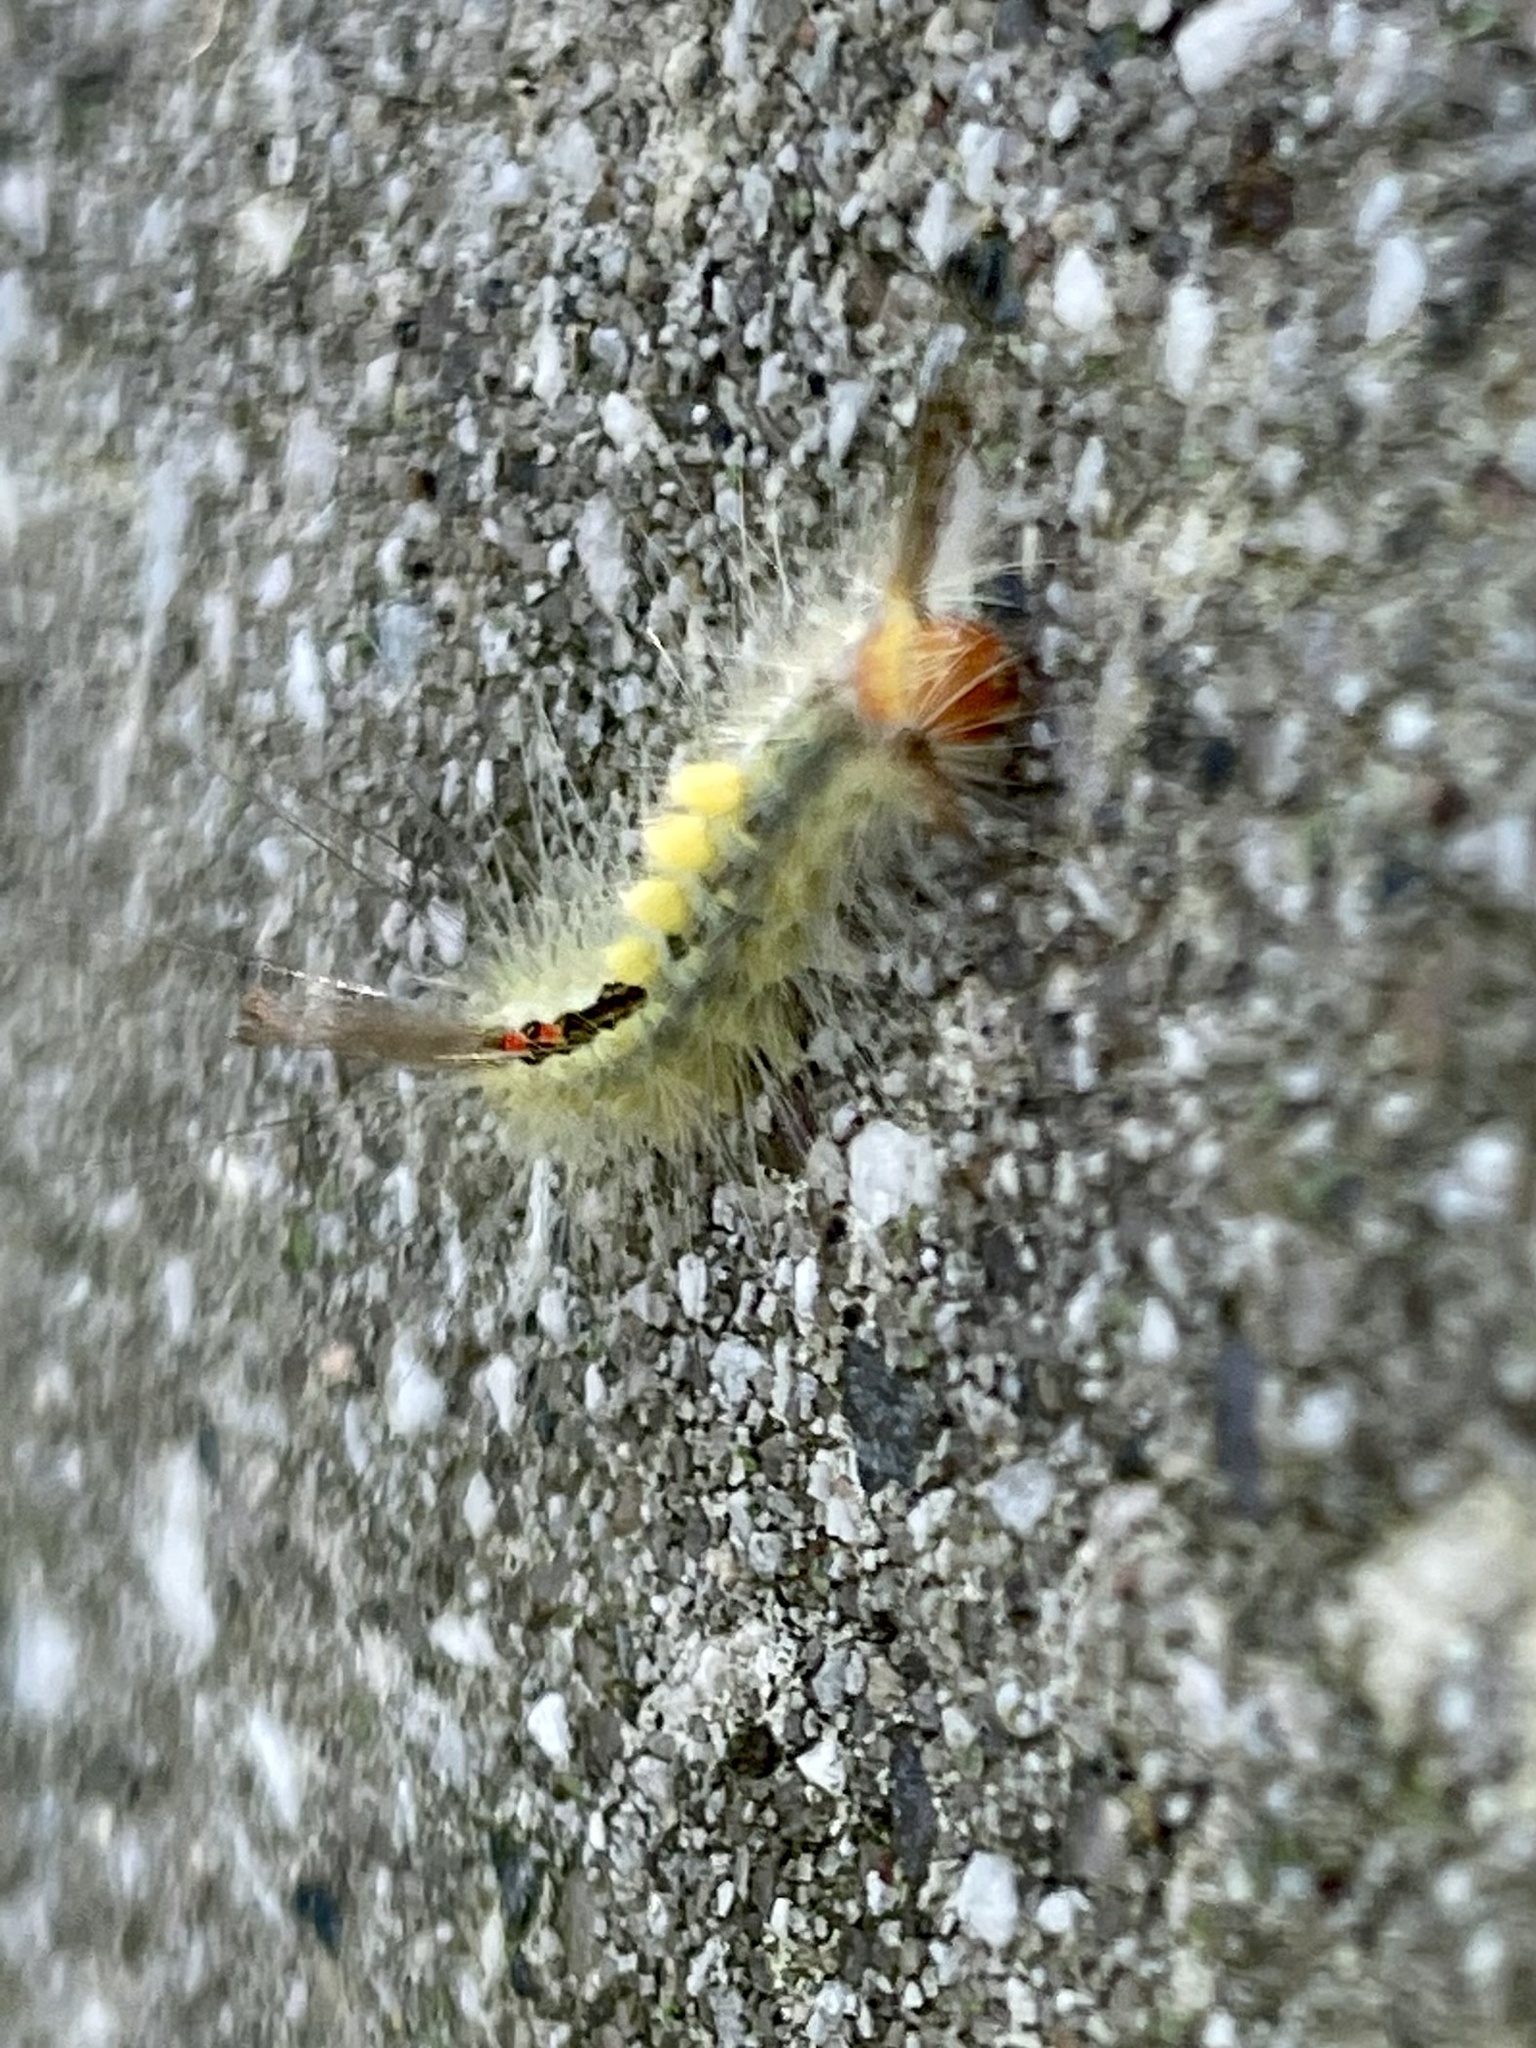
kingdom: Animalia
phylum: Arthropoda
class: Insecta
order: Lepidoptera
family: Erebidae
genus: Orgyia
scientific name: Orgyia leucostigma
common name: White-marked tussock moth
